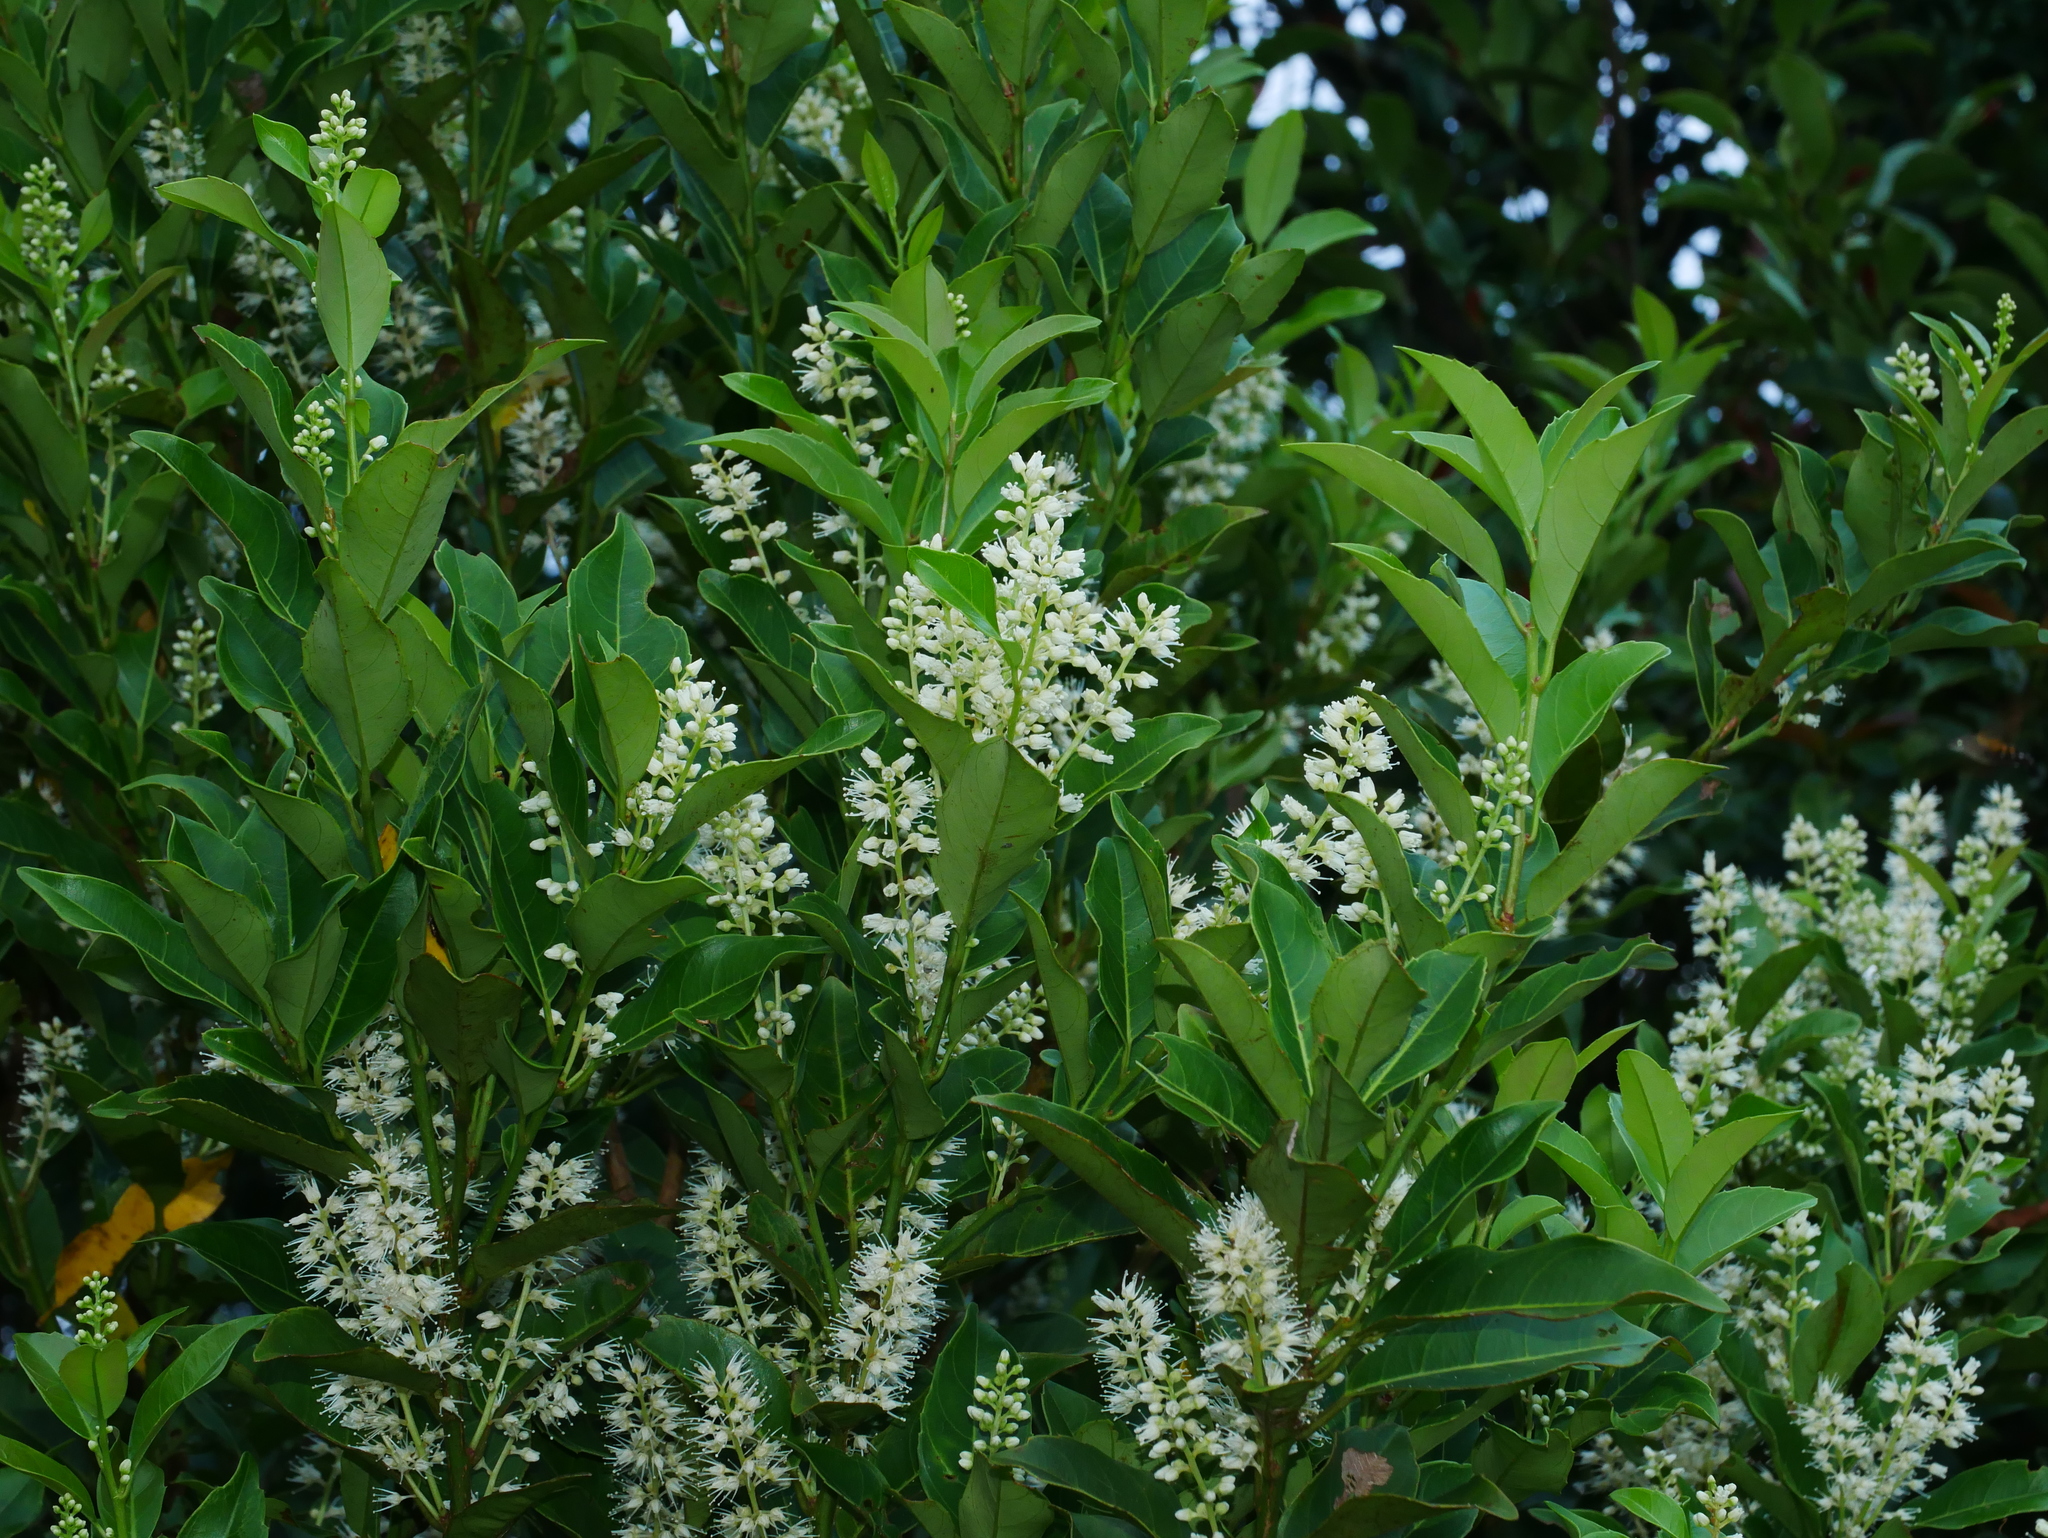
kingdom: Plantae
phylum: Tracheophyta
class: Magnoliopsida
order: Saxifragales
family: Iteaceae
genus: Itea
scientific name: Itea oldhamii
